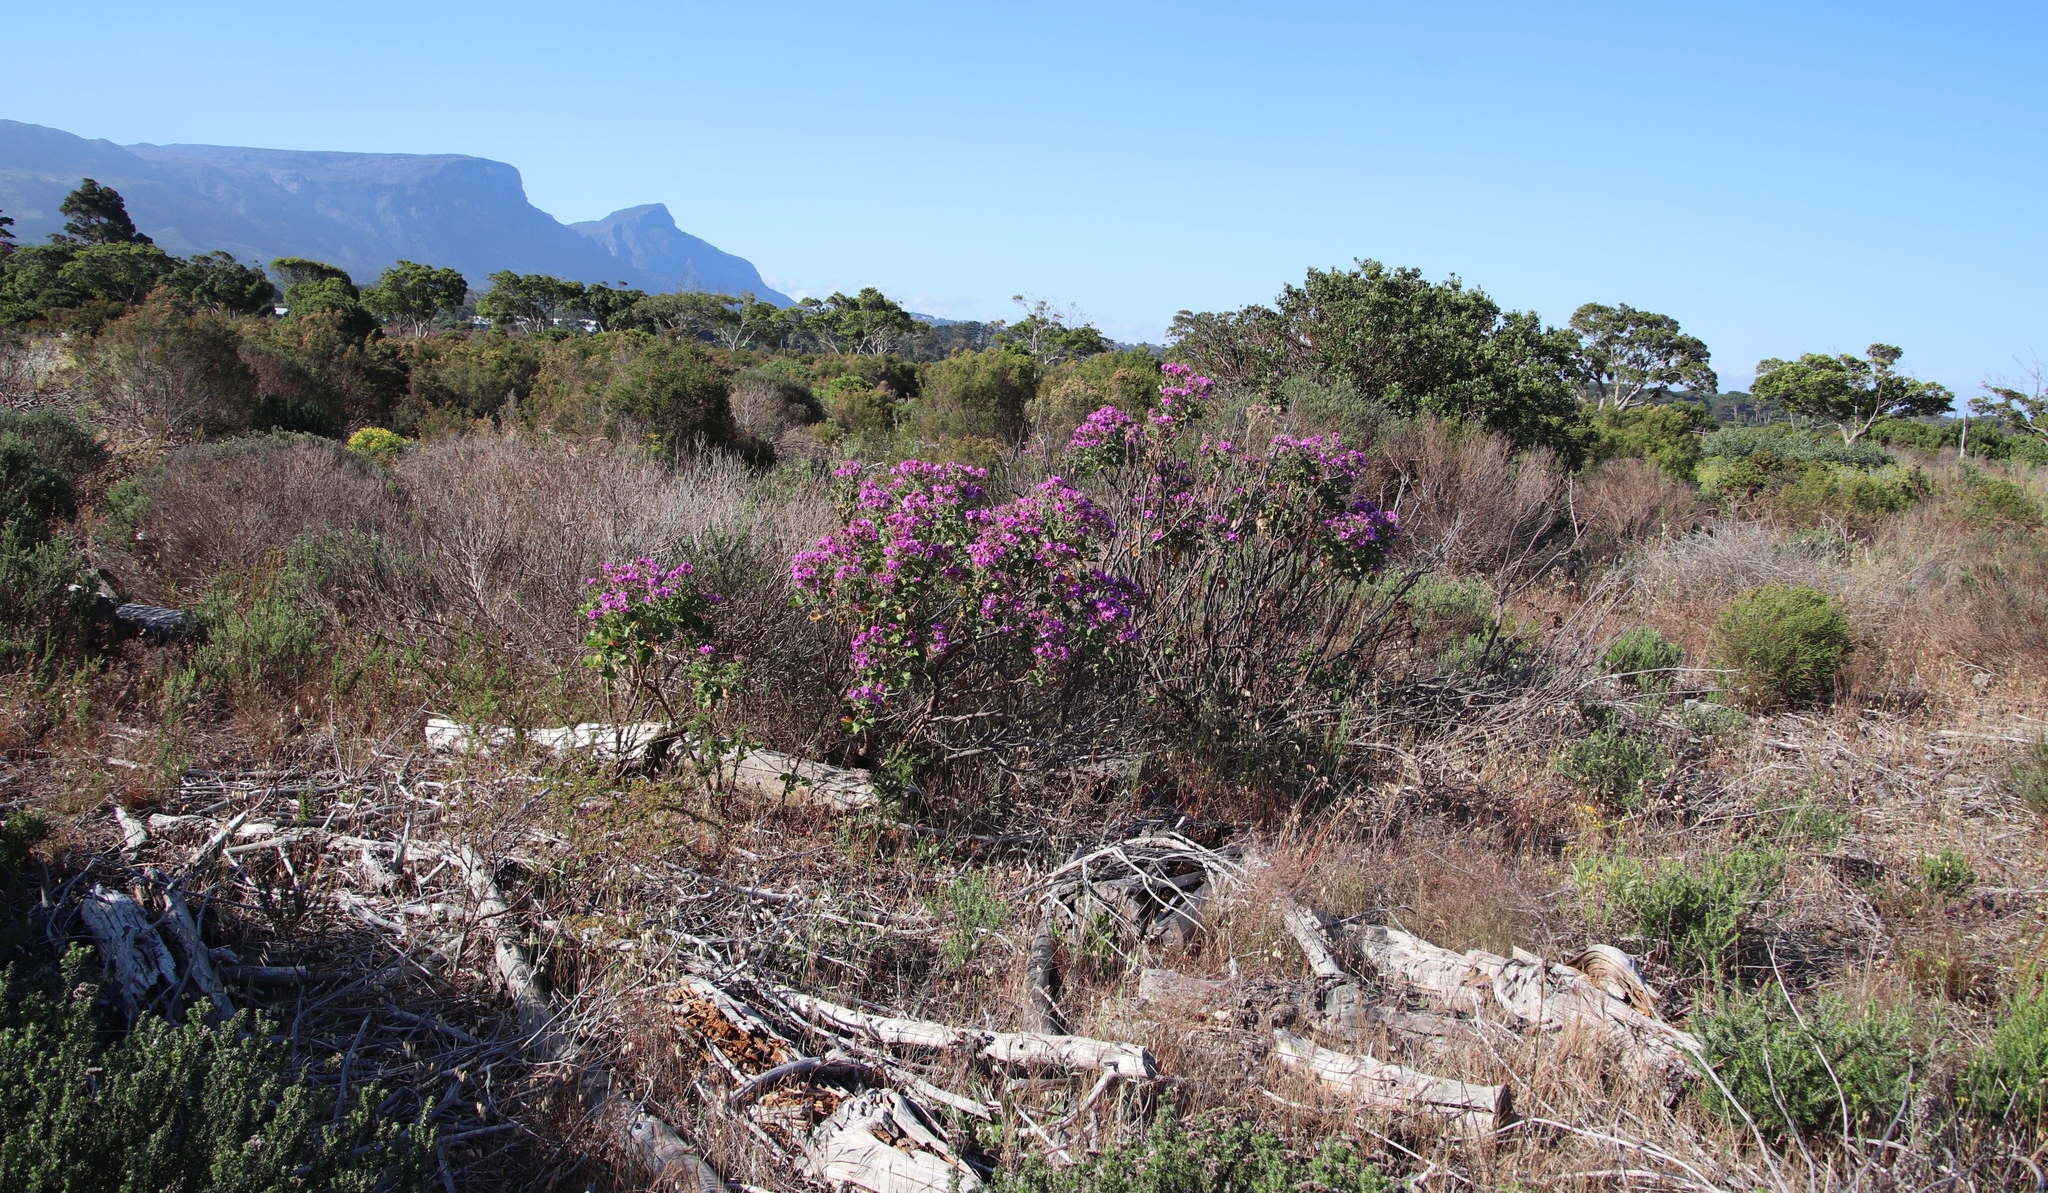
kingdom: Plantae
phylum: Tracheophyta
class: Magnoliopsida
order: Geraniales
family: Geraniaceae
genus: Pelargonium
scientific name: Pelargonium cucullatum
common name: Tree pelargonium
